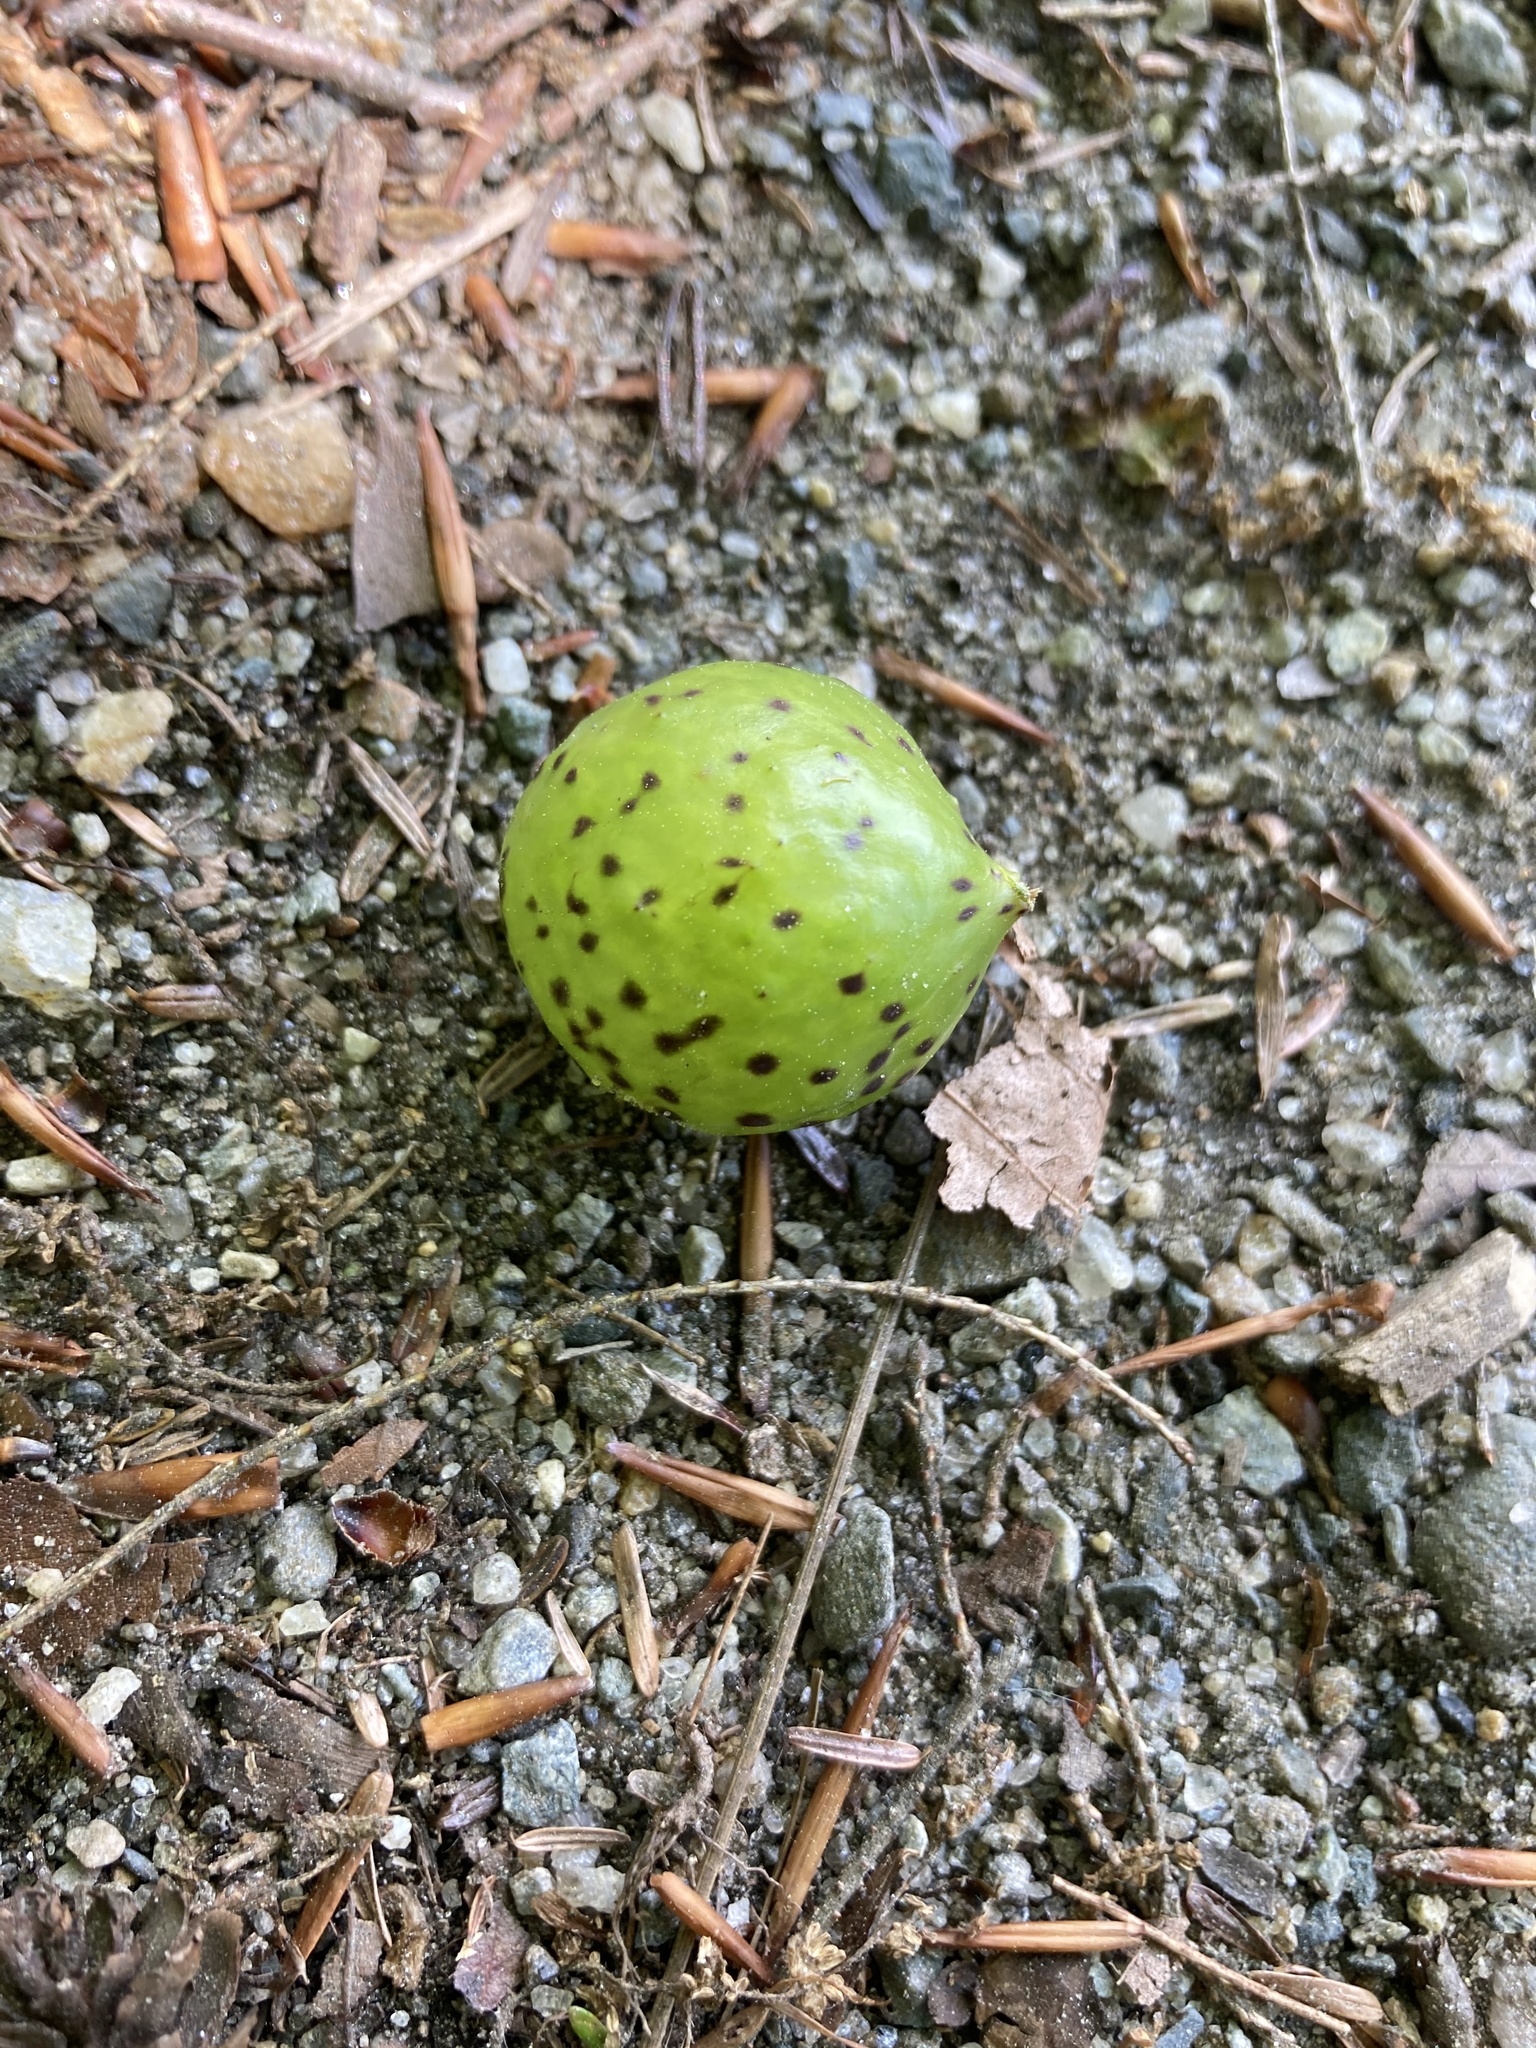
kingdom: Animalia
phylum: Arthropoda
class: Insecta
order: Hymenoptera
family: Cynipidae
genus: Amphibolips
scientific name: Amphibolips
